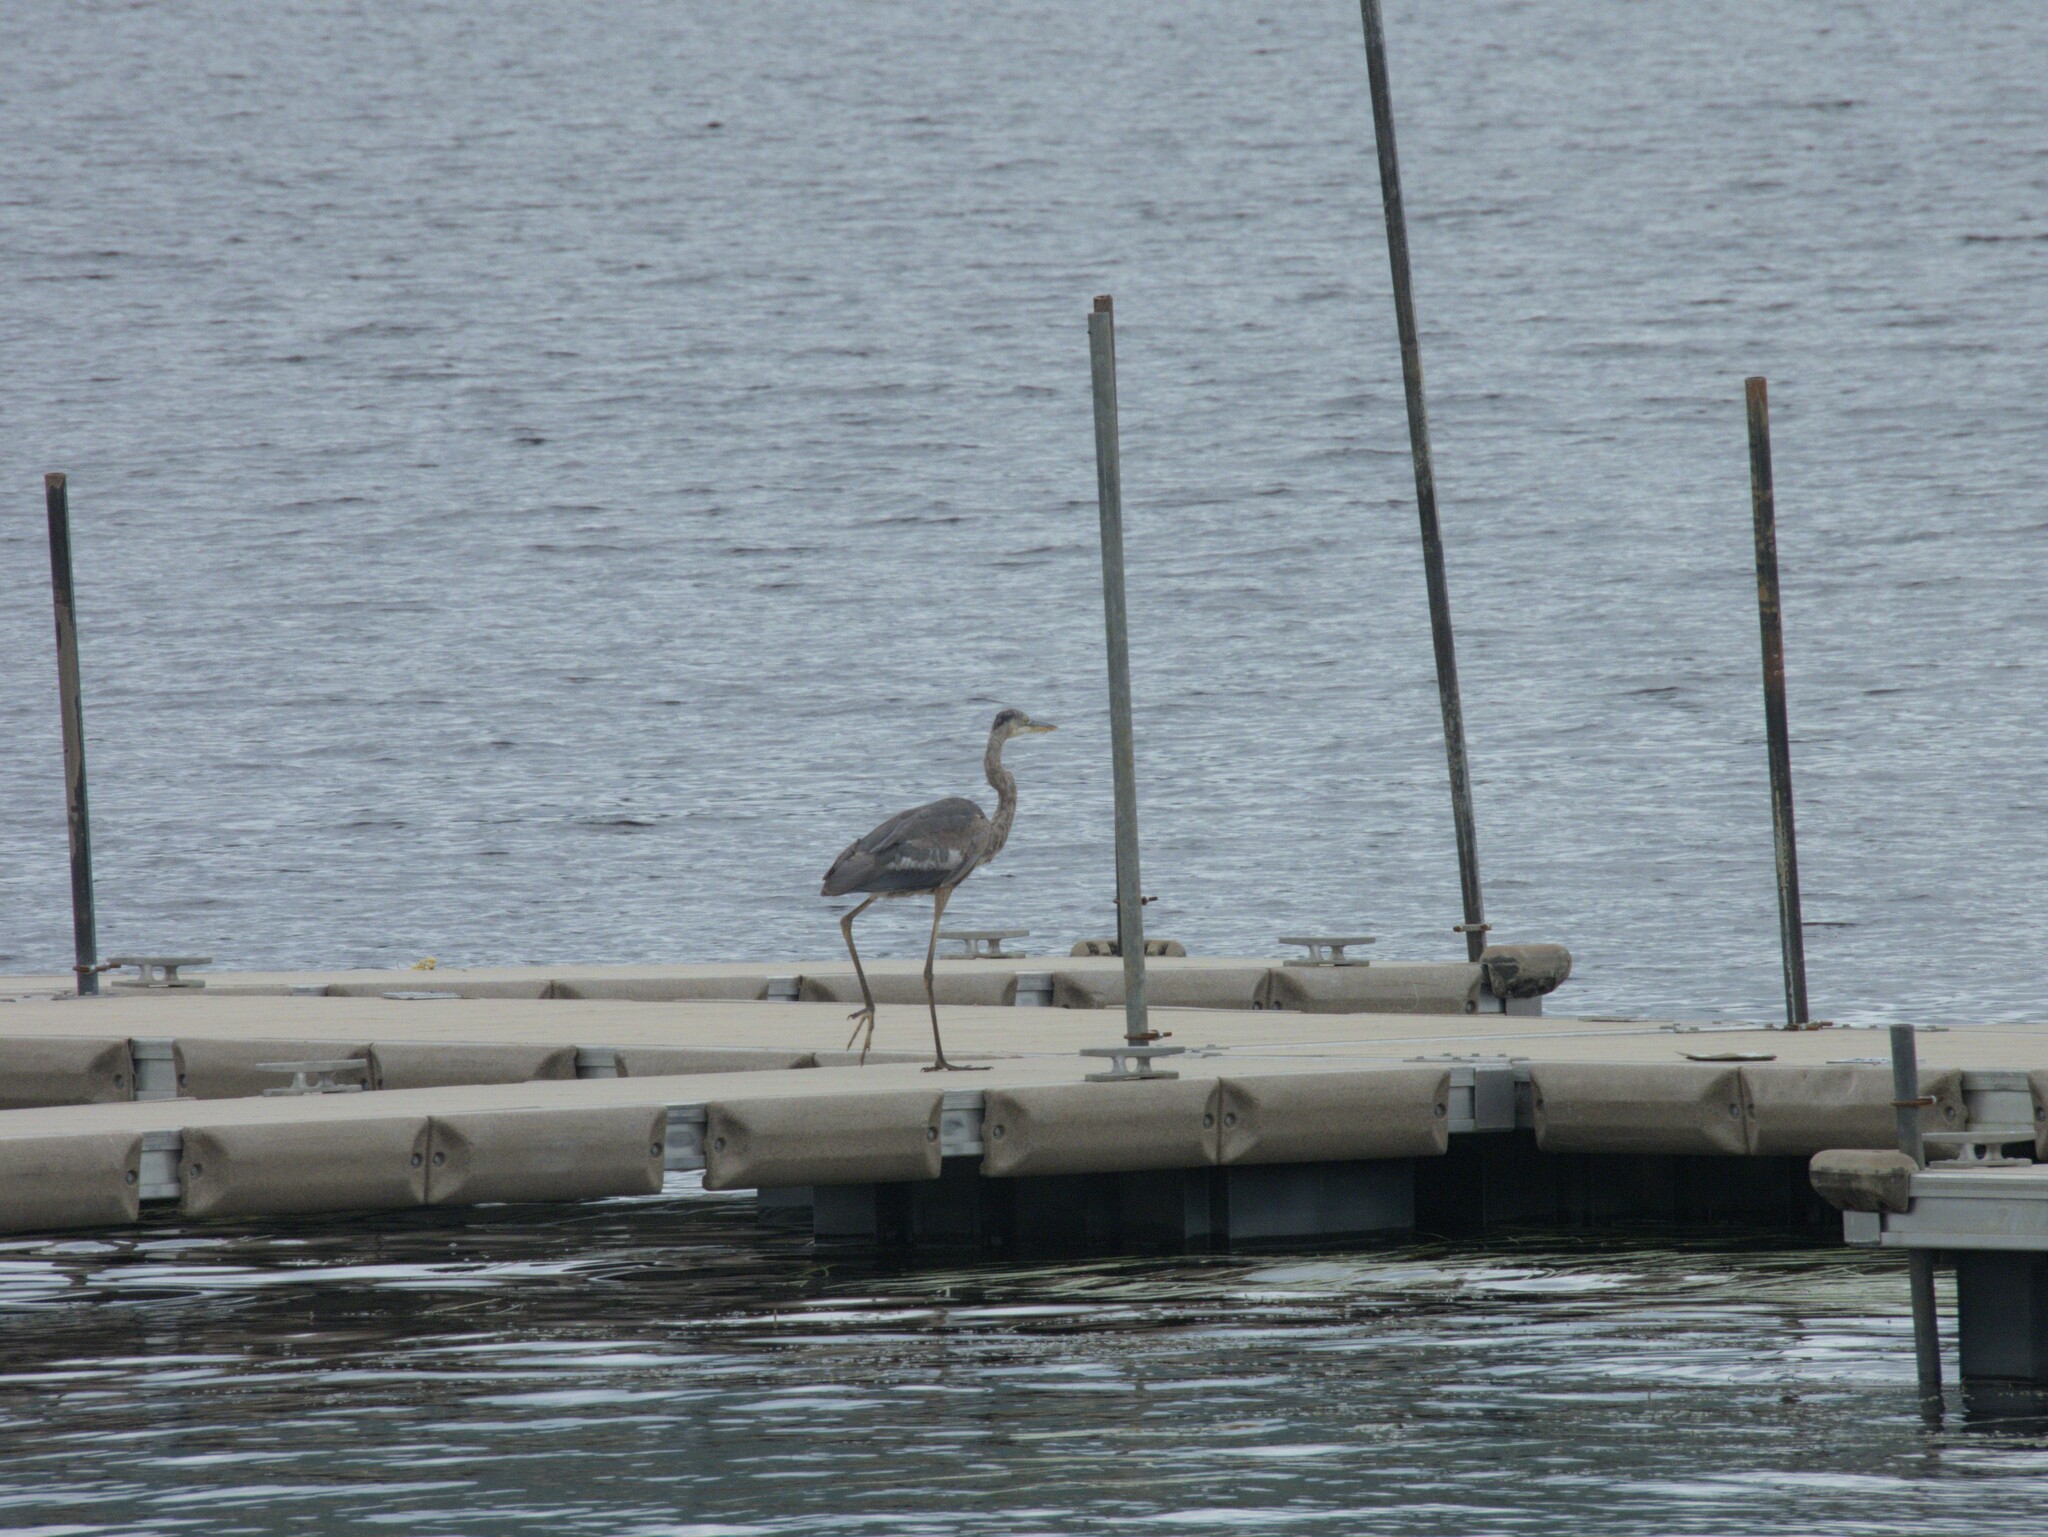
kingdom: Animalia
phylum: Chordata
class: Aves
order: Pelecaniformes
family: Ardeidae
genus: Ardea
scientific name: Ardea herodias
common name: Great blue heron
